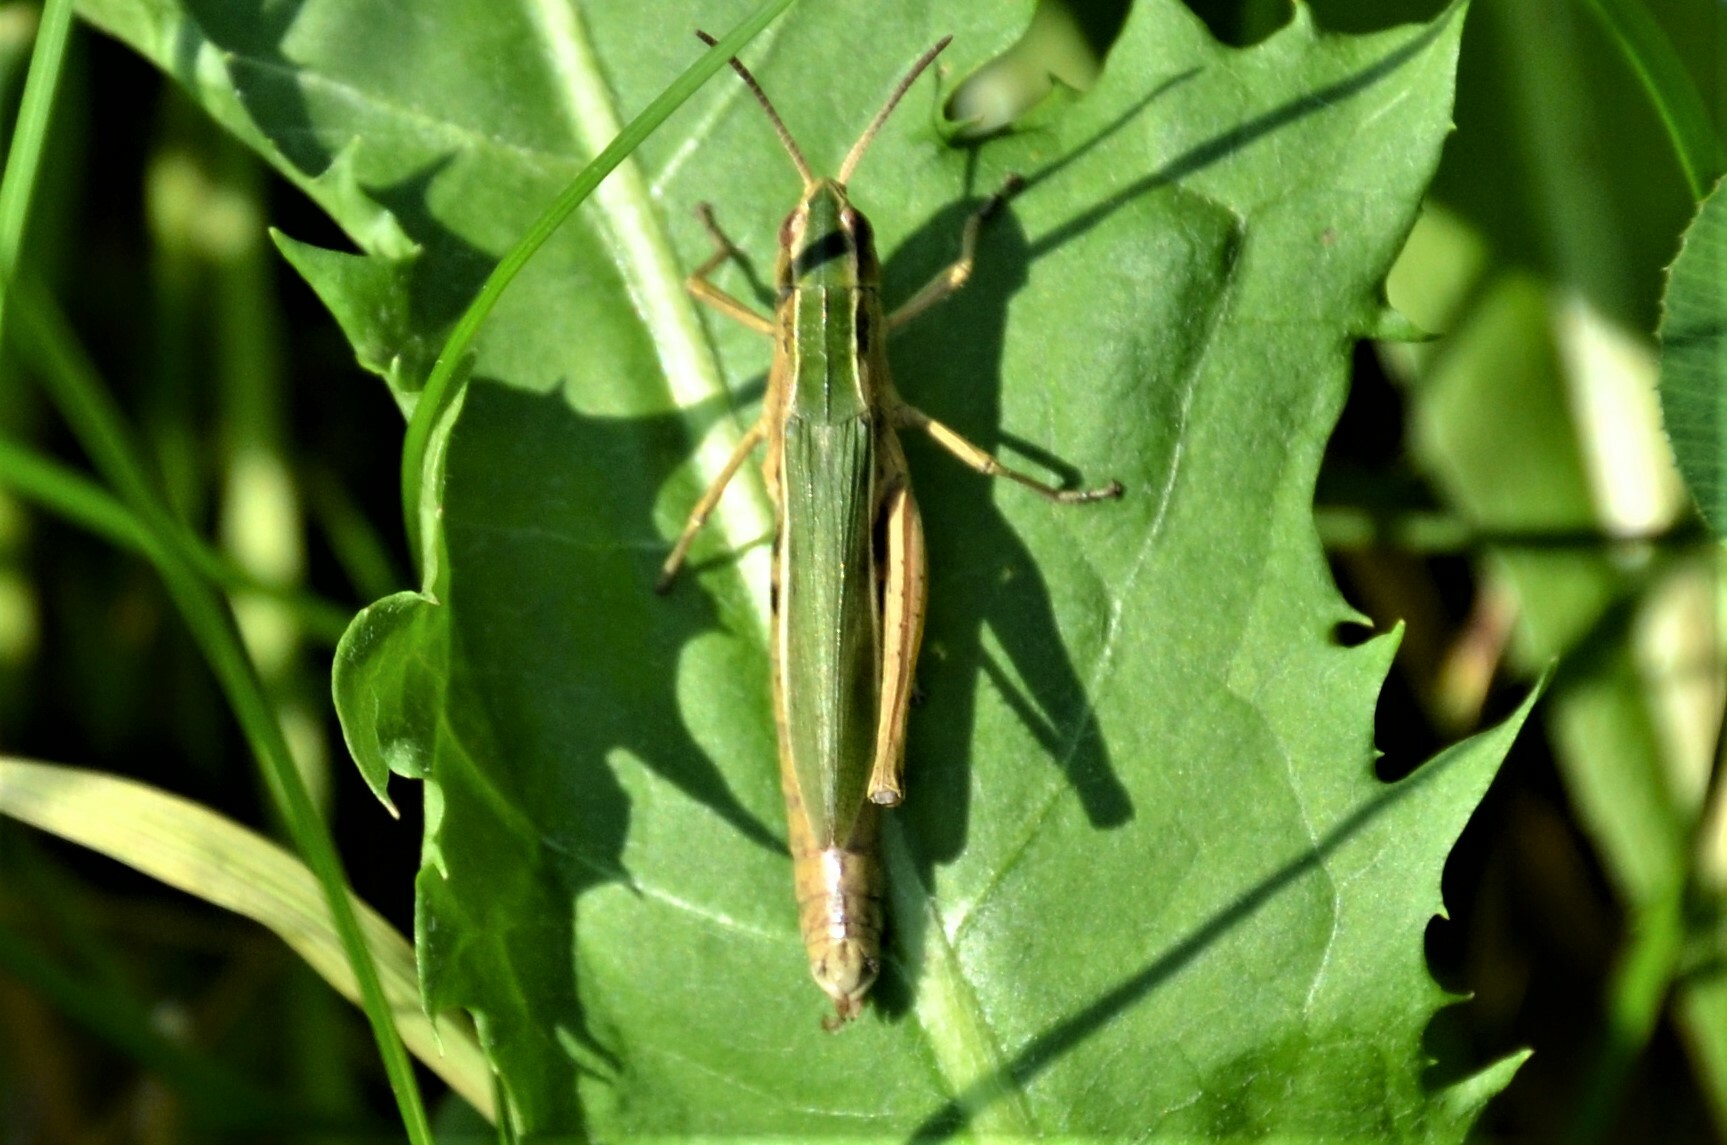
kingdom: Animalia
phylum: Arthropoda
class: Insecta
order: Orthoptera
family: Acrididae
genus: Chorthippus
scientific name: Chorthippus albomarginatus
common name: Lesser marsh grasshopper
